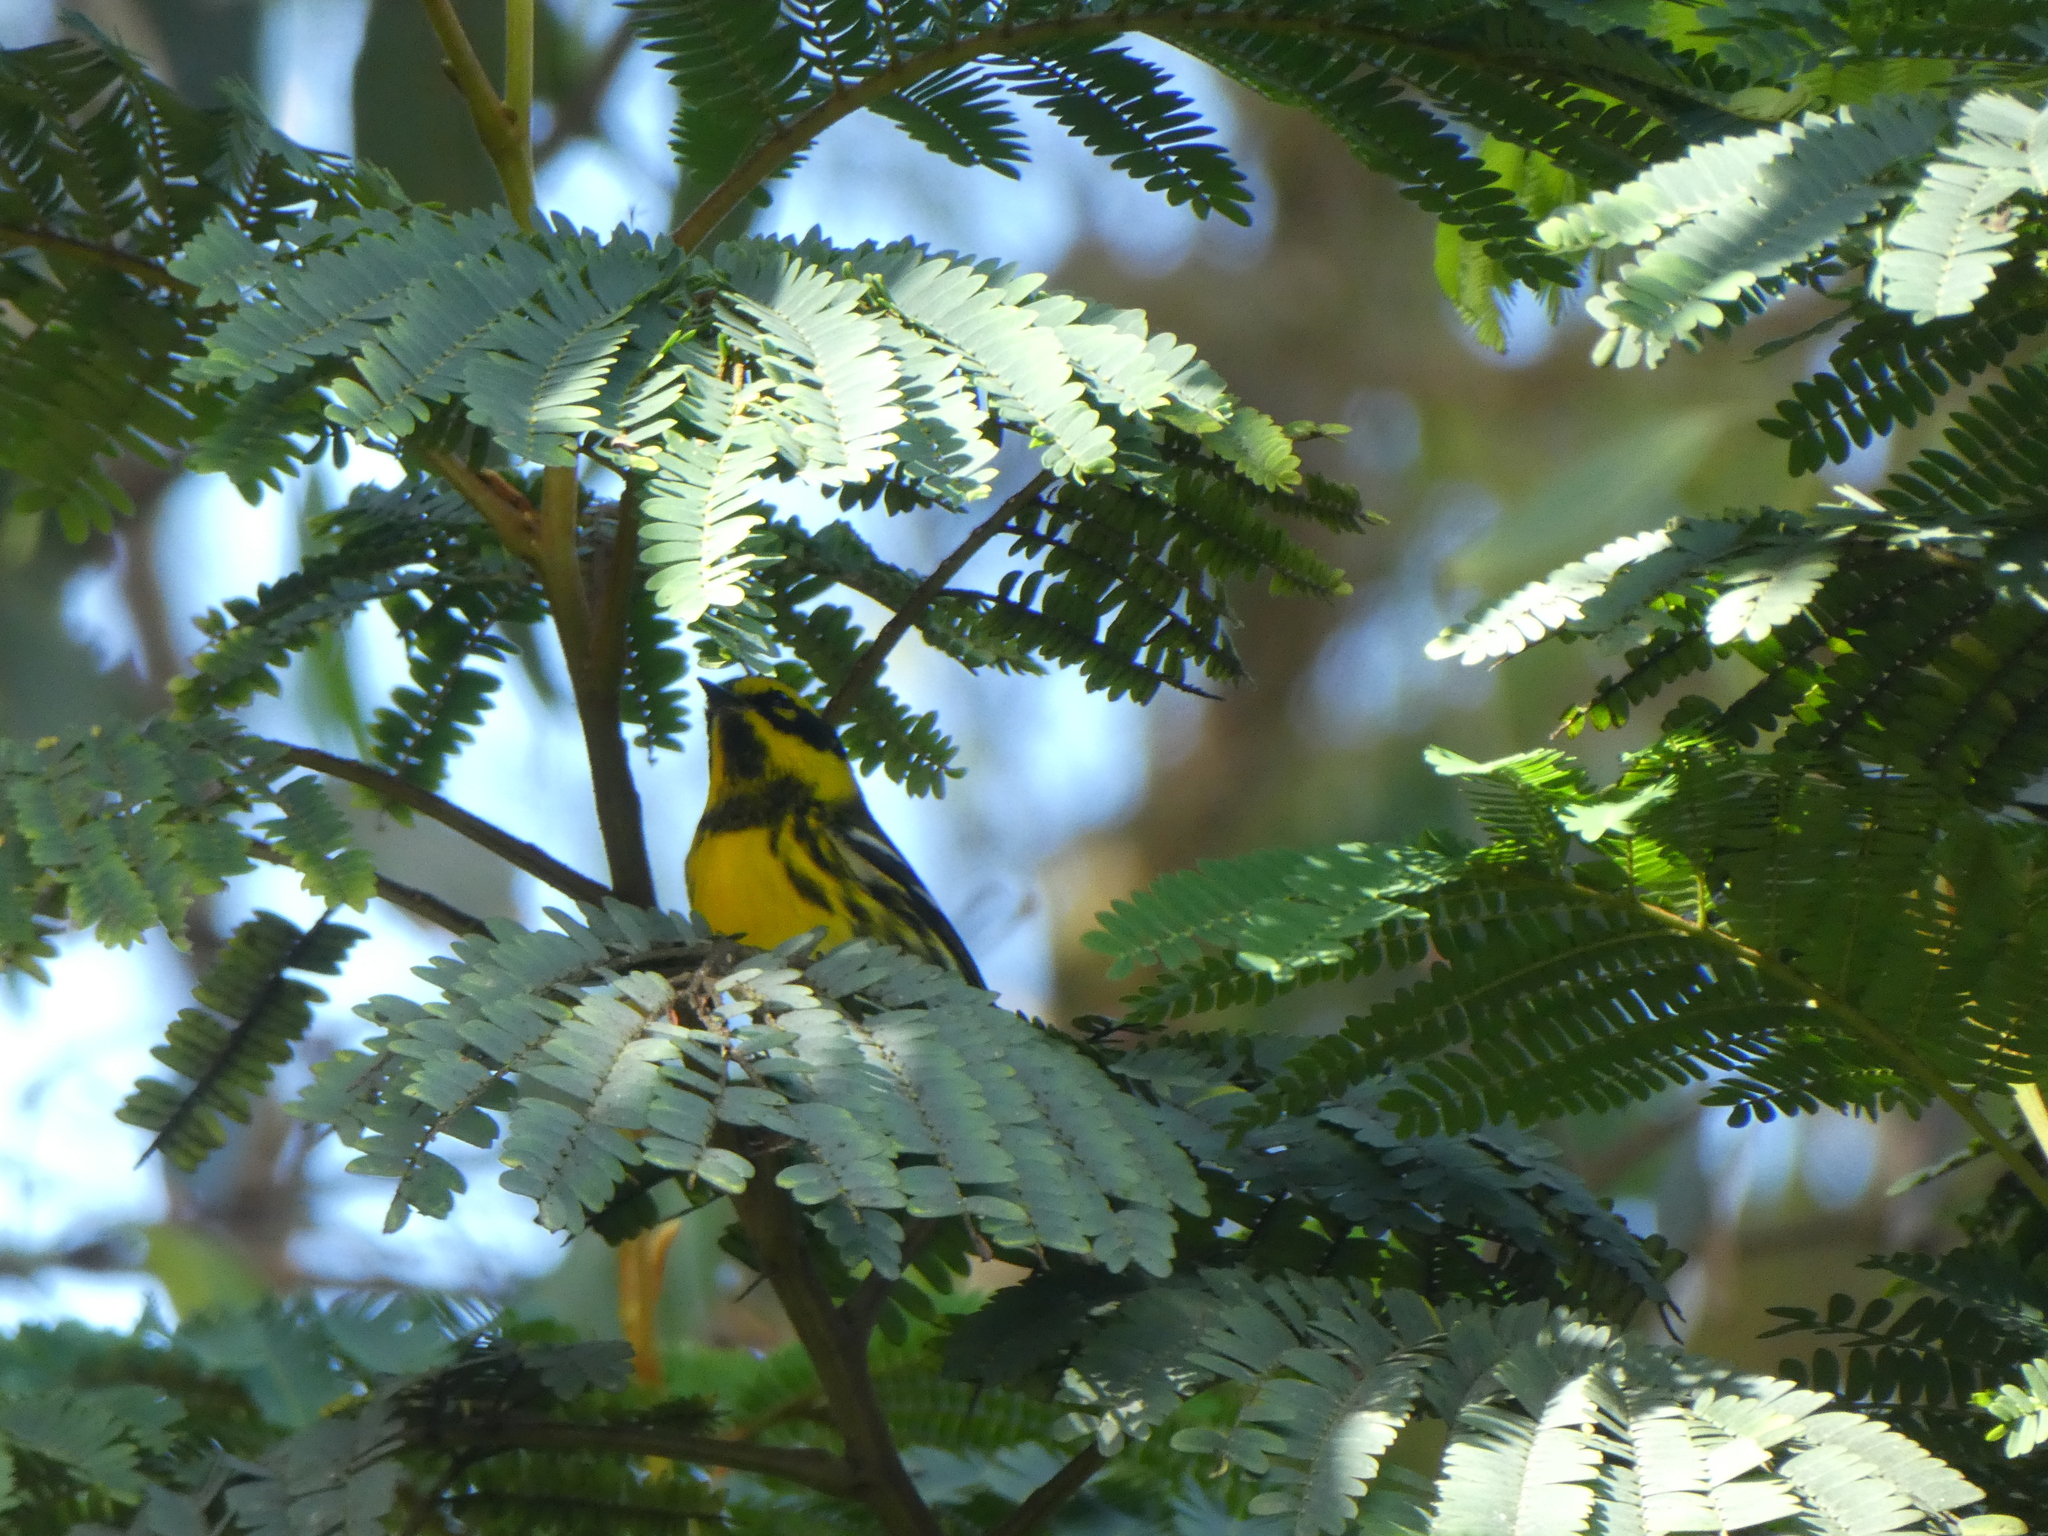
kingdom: Animalia
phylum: Chordata
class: Aves
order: Passeriformes
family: Parulidae
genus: Setophaga
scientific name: Setophaga townsendi
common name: Townsend's warbler
